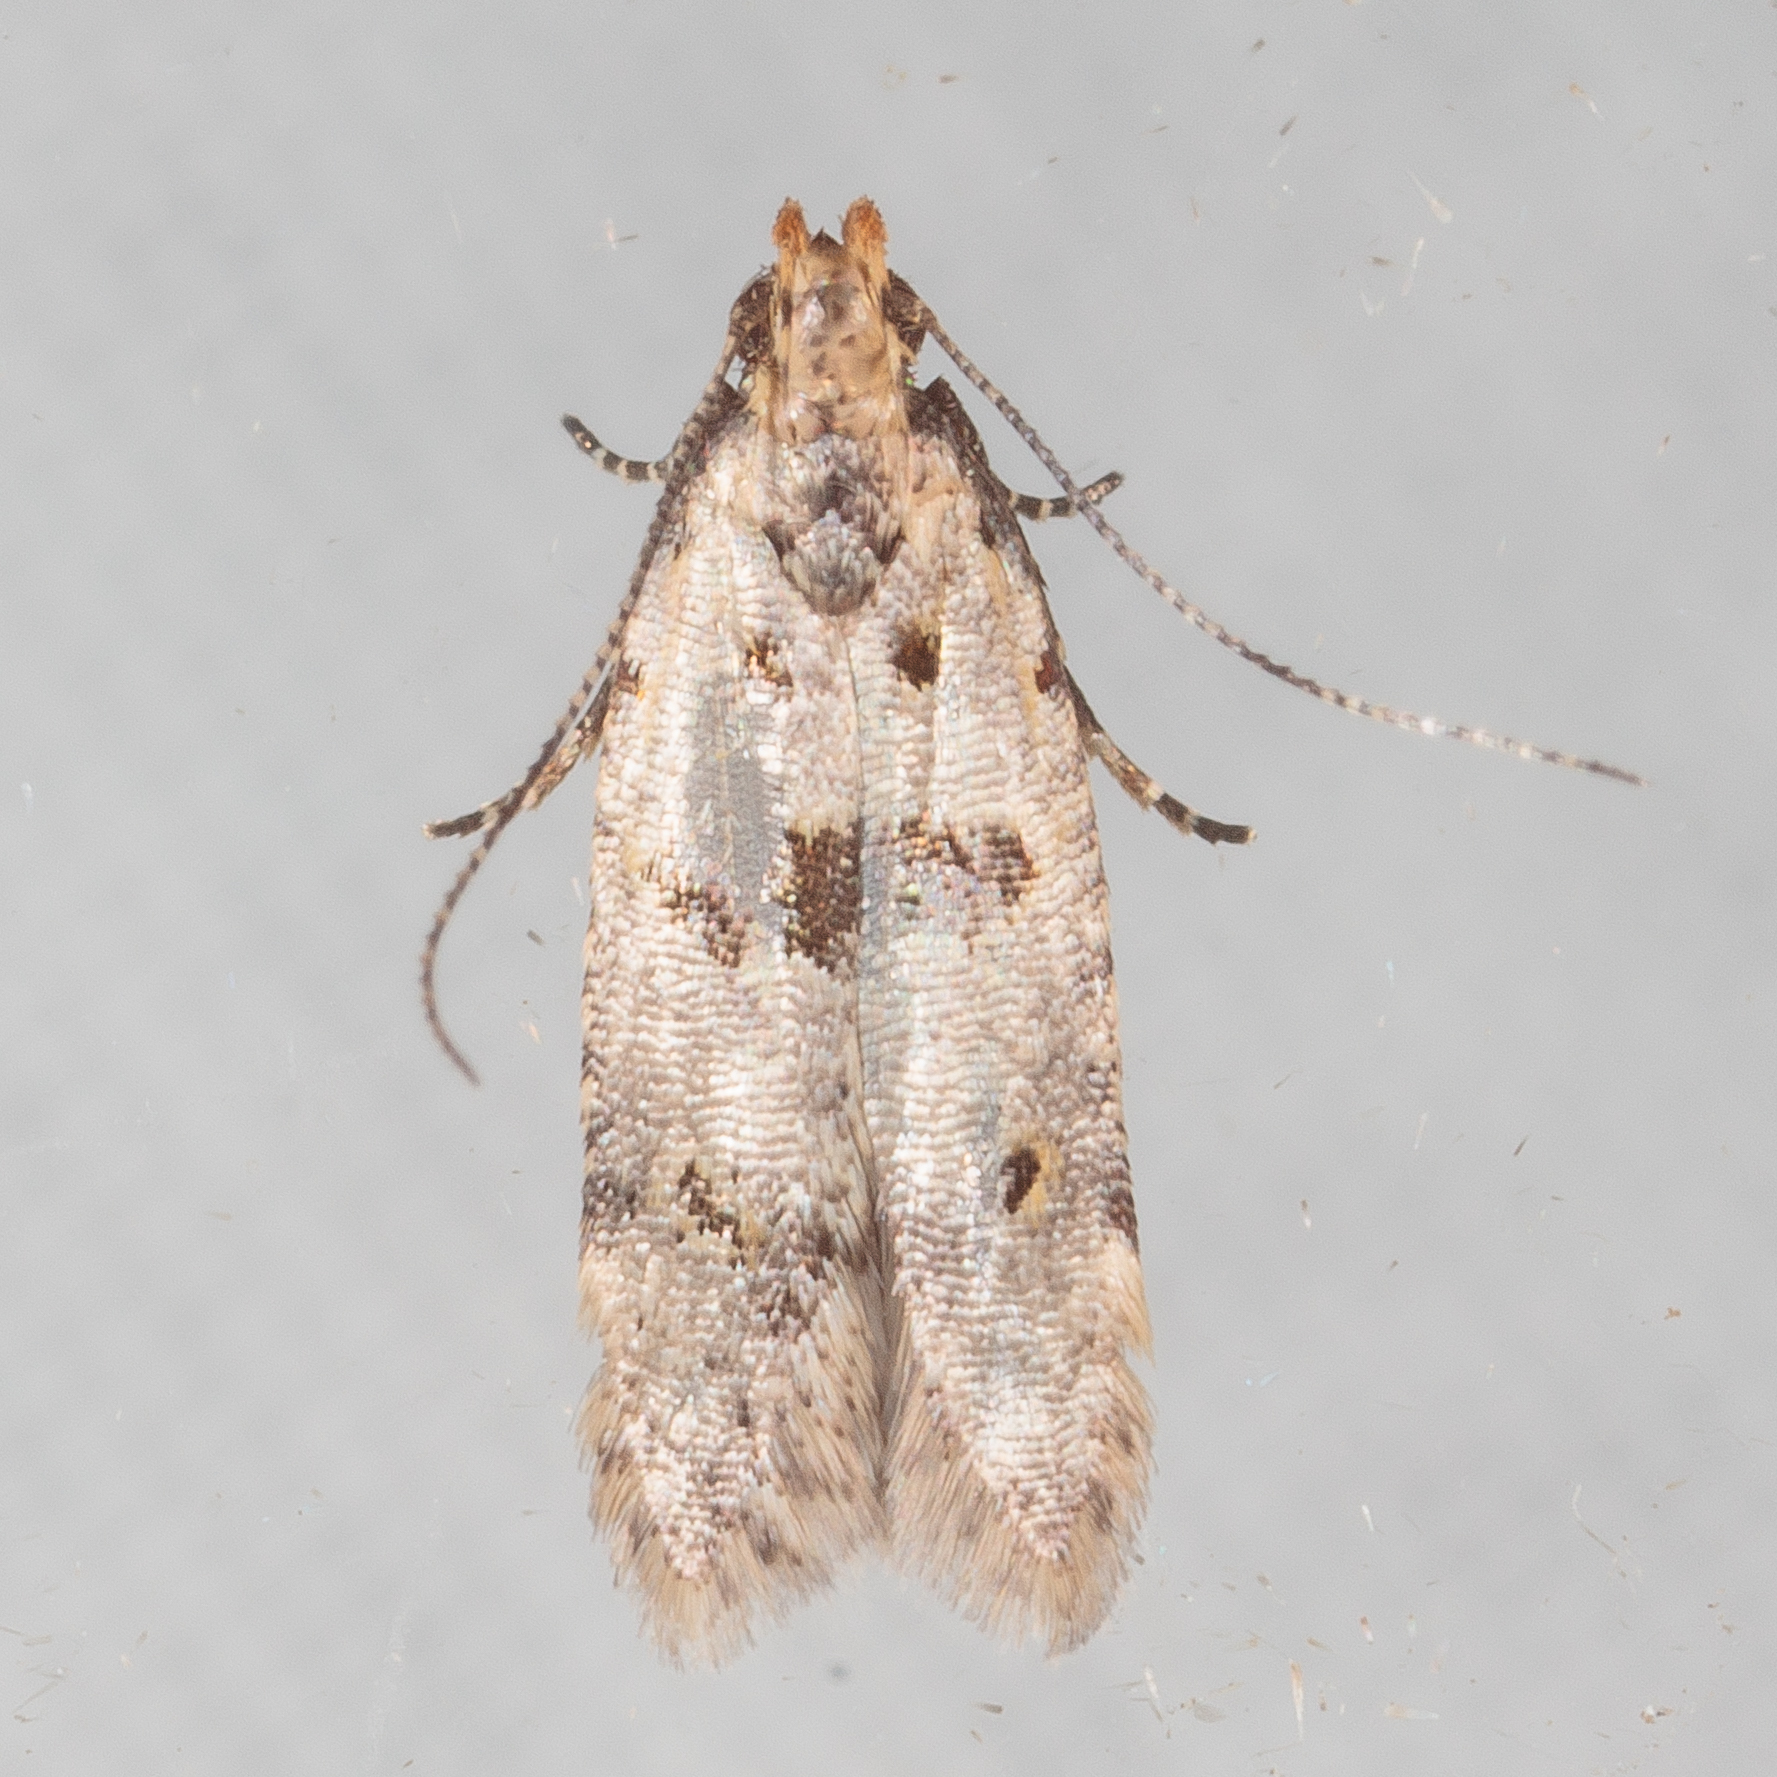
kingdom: Animalia
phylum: Arthropoda
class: Insecta
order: Lepidoptera
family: Gelechiidae
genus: Deltophora
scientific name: Deltophora glandiferella
